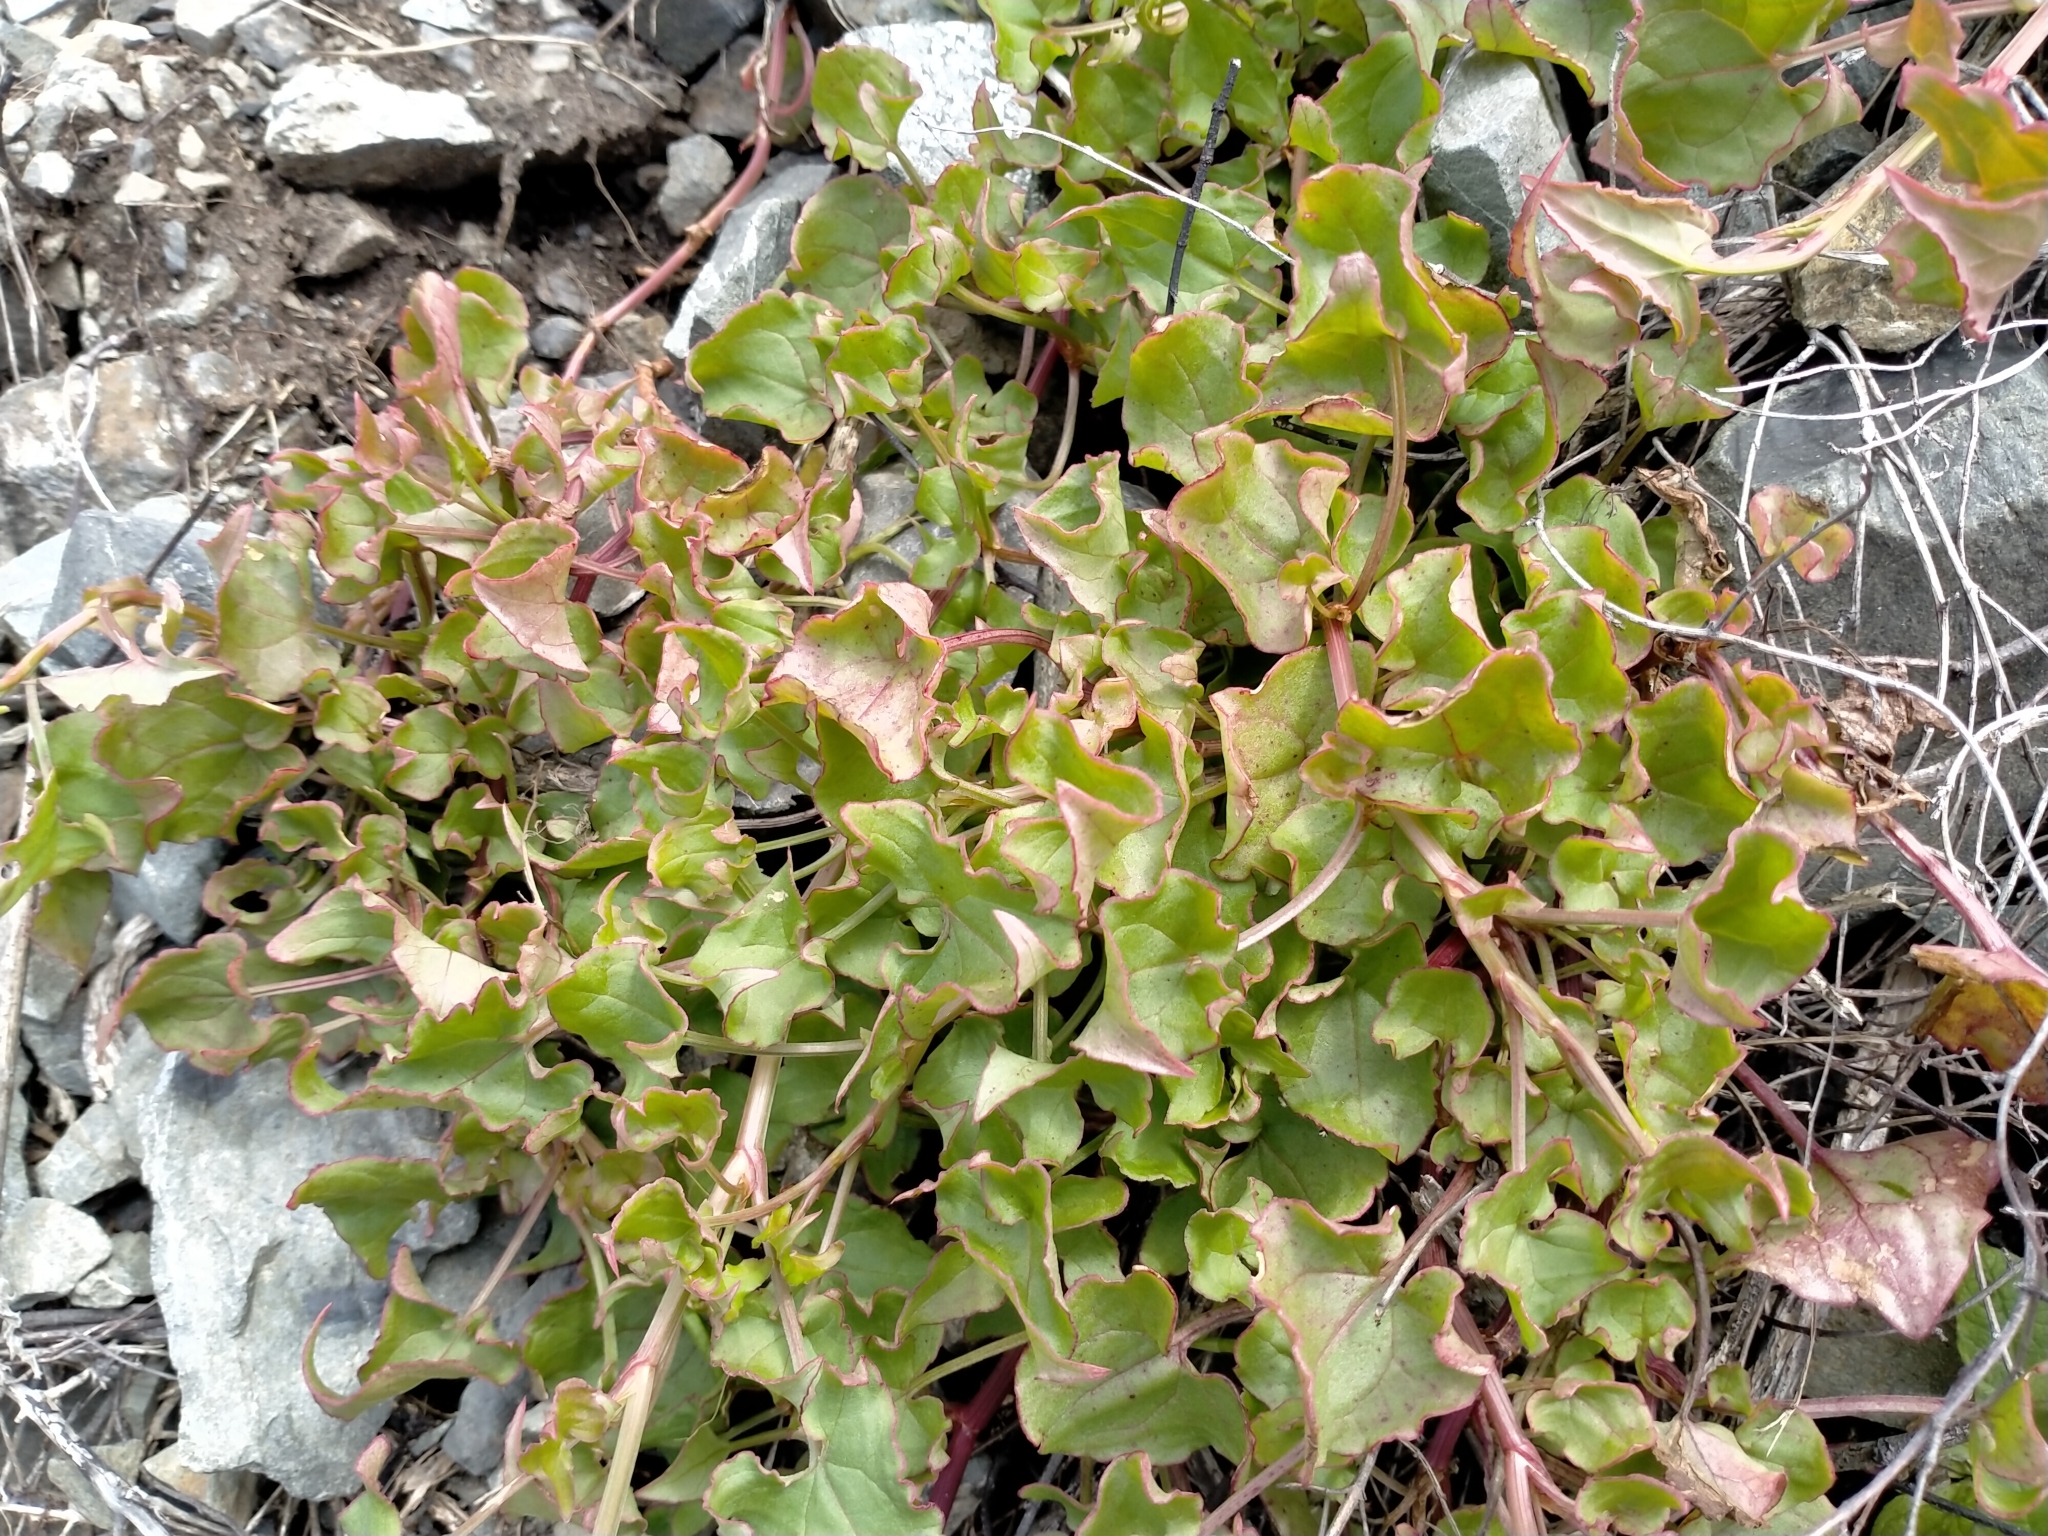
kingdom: Plantae
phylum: Tracheophyta
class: Magnoliopsida
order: Caryophyllales
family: Polygonaceae
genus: Rumex
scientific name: Rumex sagittatus
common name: Climbing dock
